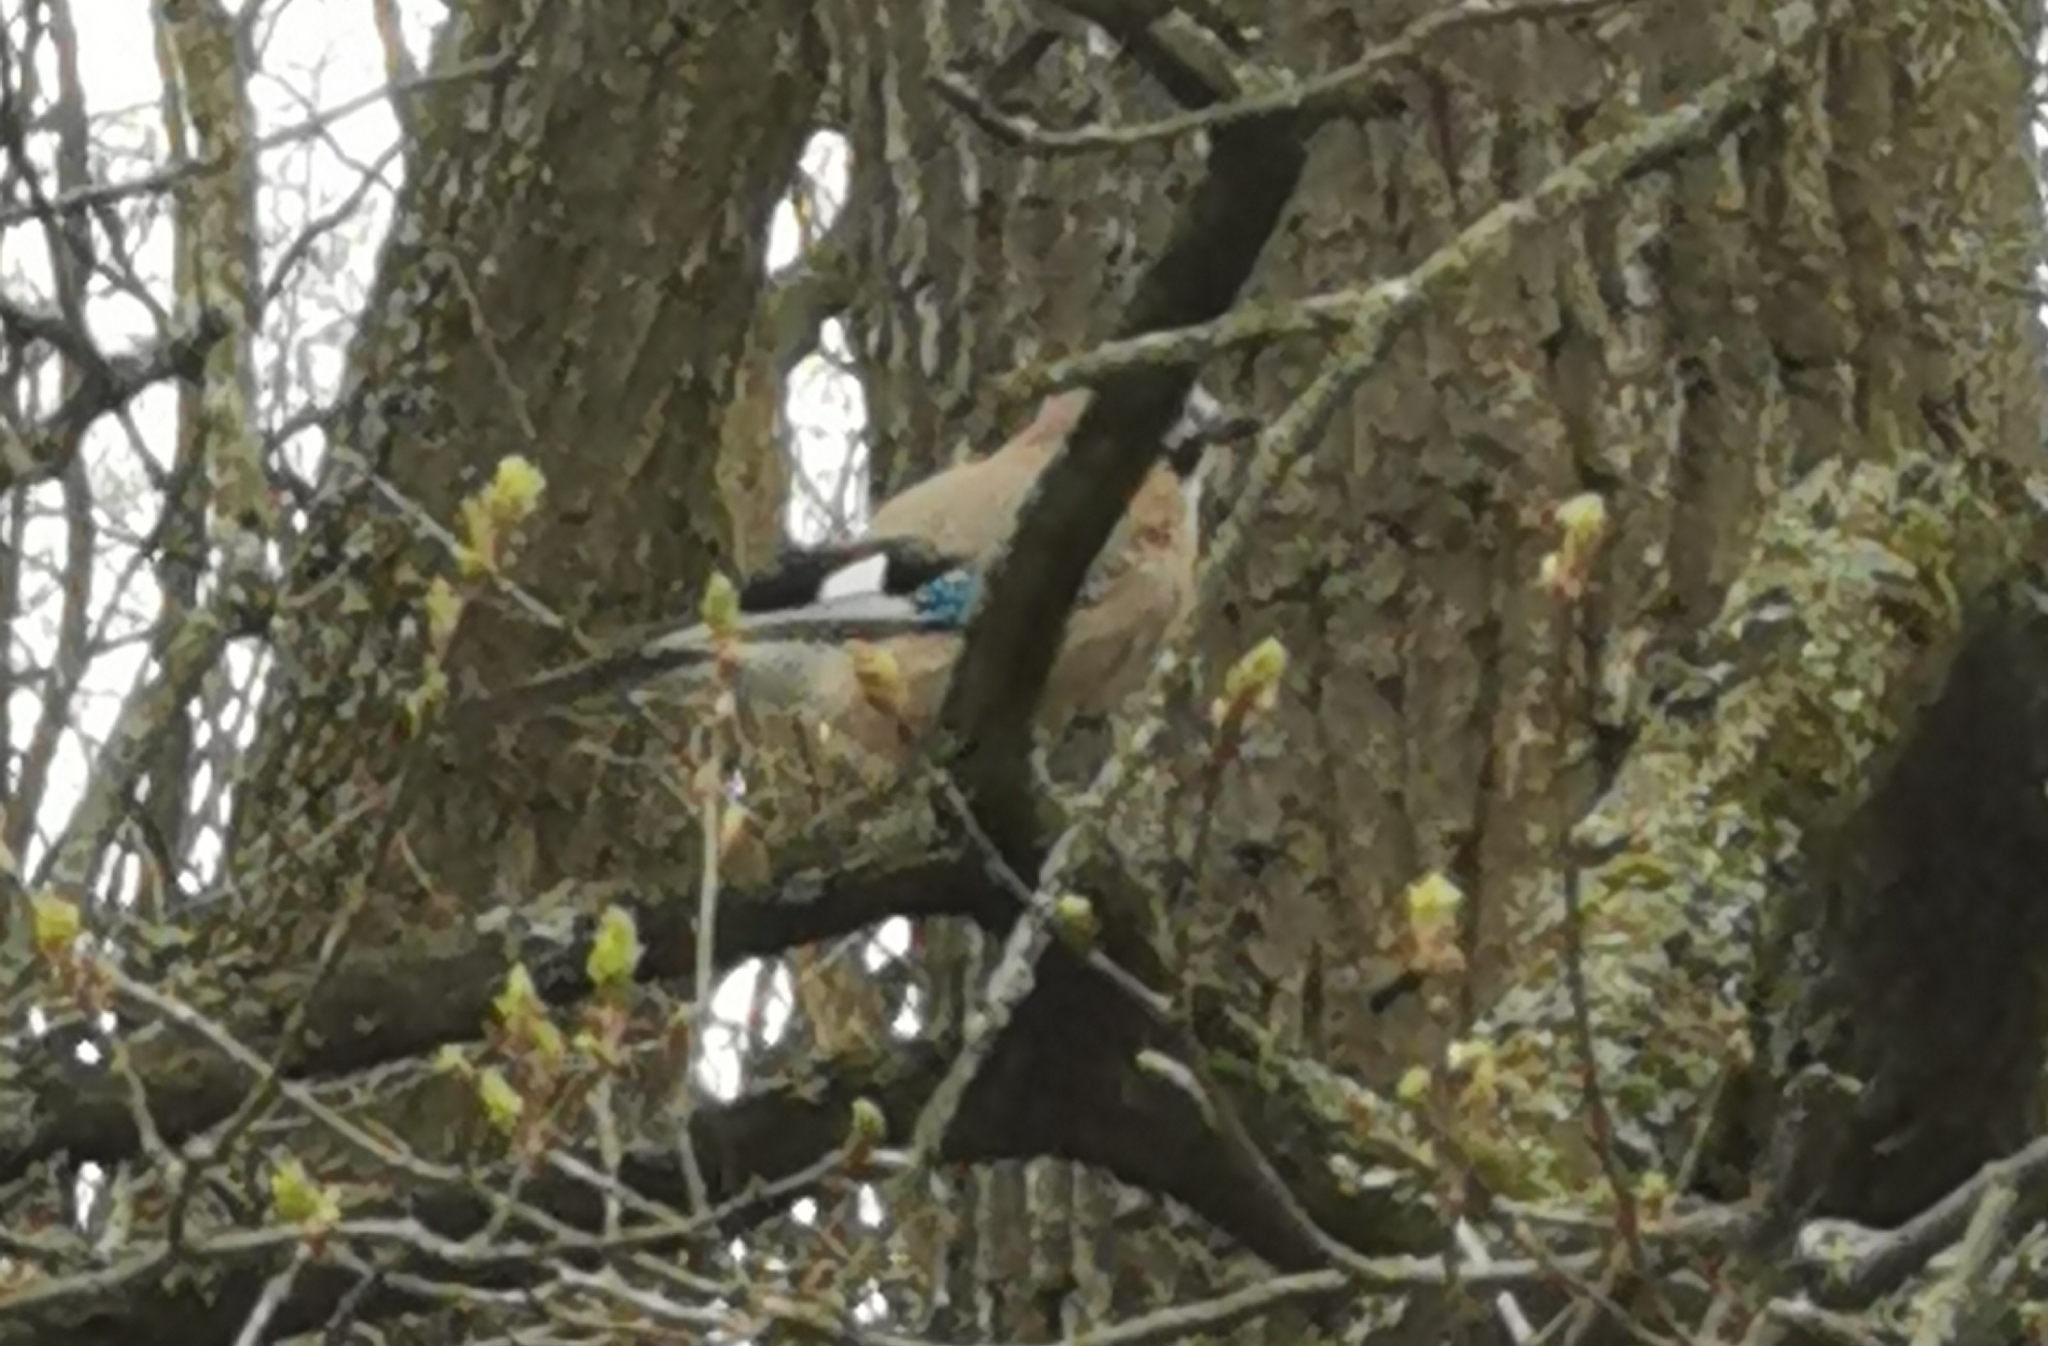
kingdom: Animalia
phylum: Chordata
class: Aves
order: Passeriformes
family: Corvidae
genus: Garrulus
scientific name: Garrulus glandarius
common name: Eurasian jay
